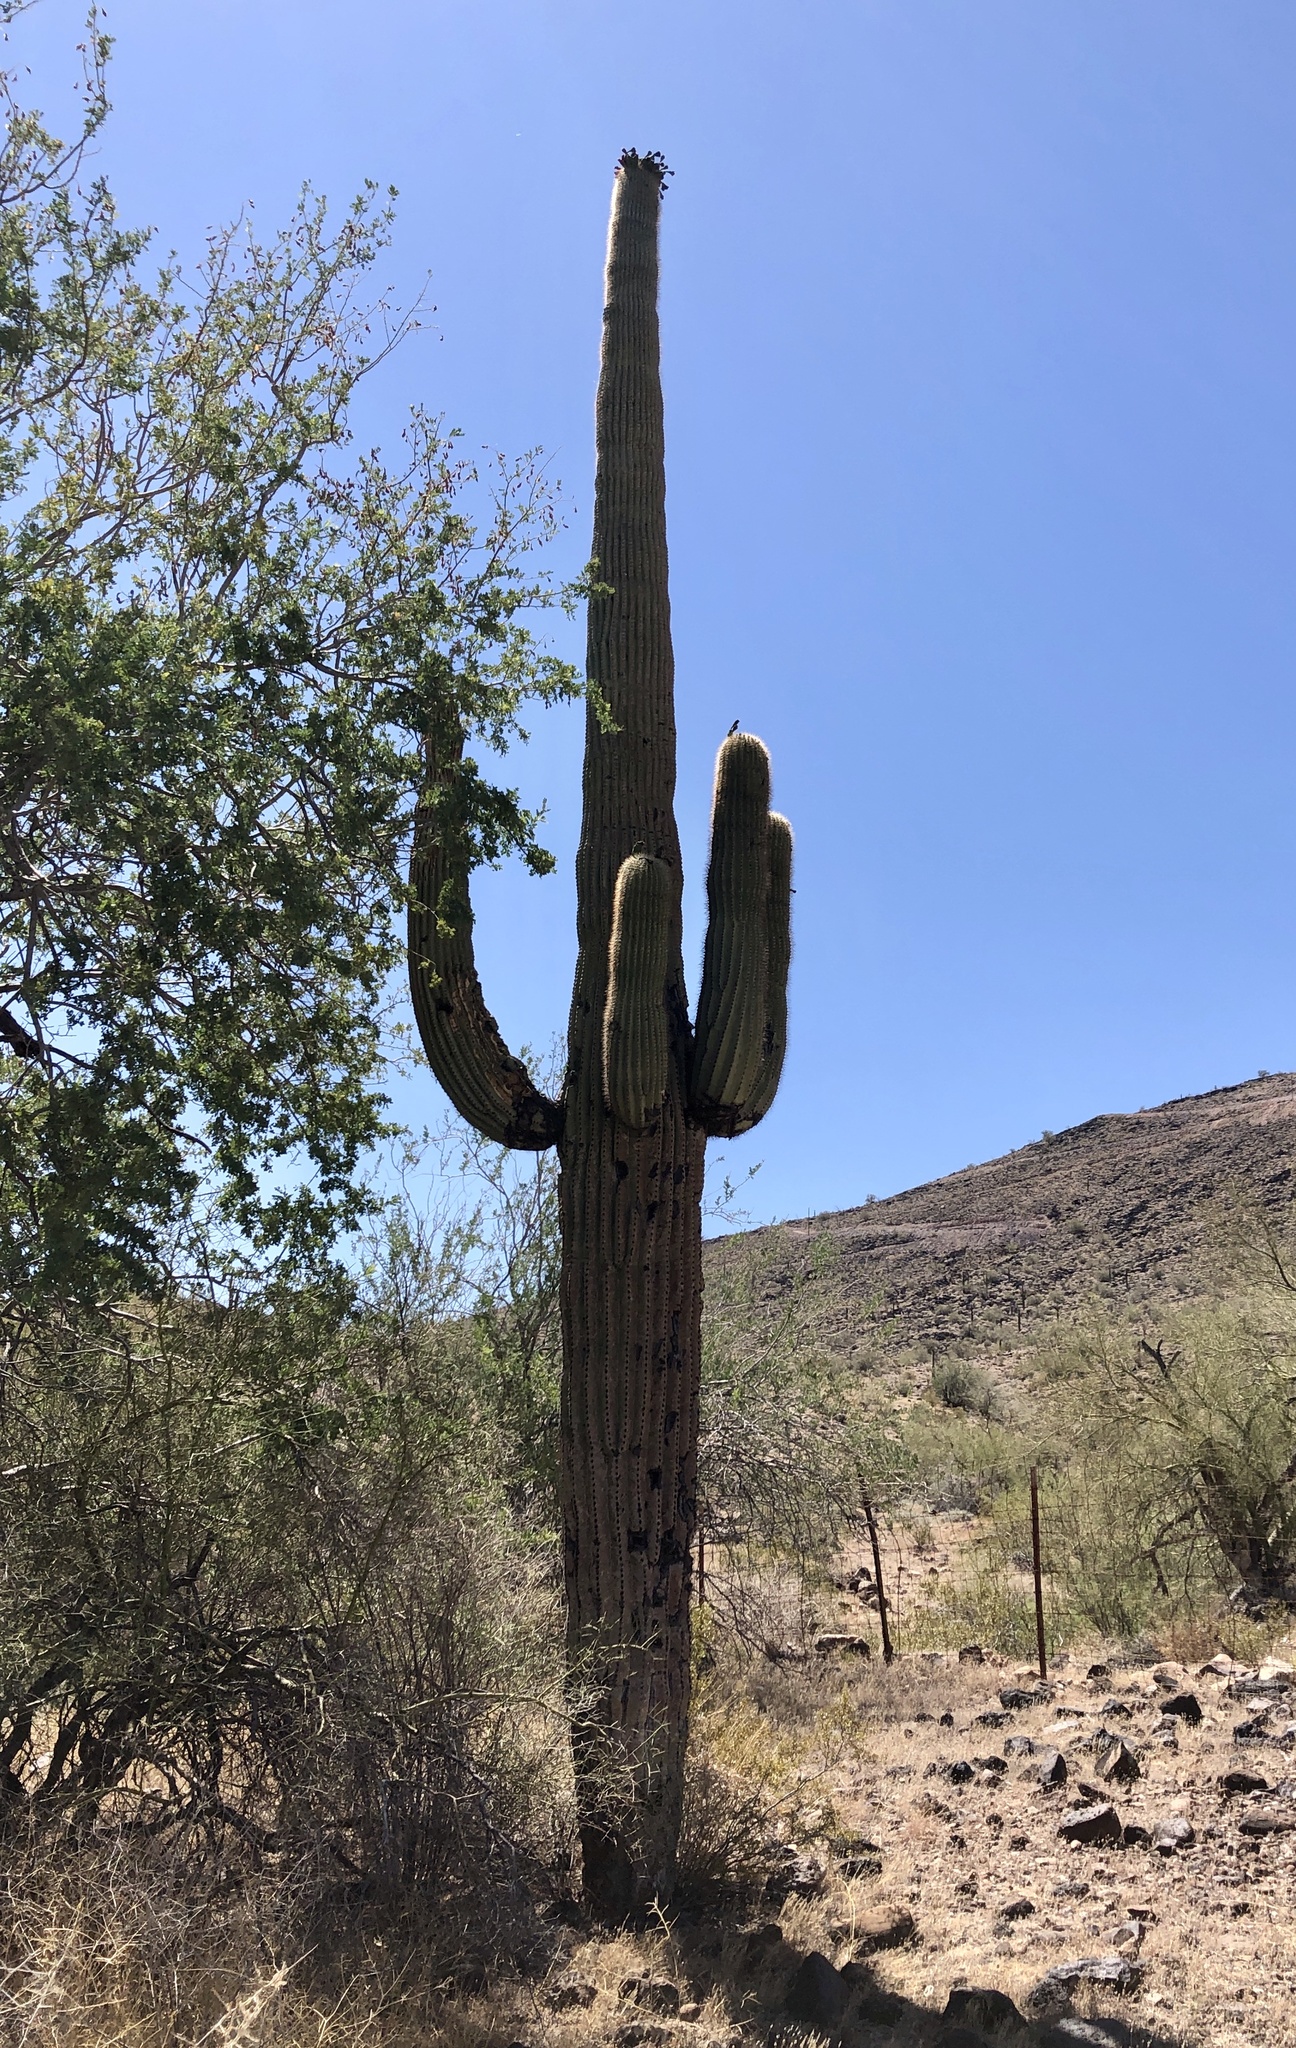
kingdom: Plantae
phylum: Tracheophyta
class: Magnoliopsida
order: Caryophyllales
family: Cactaceae
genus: Carnegiea
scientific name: Carnegiea gigantea
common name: Saguaro
